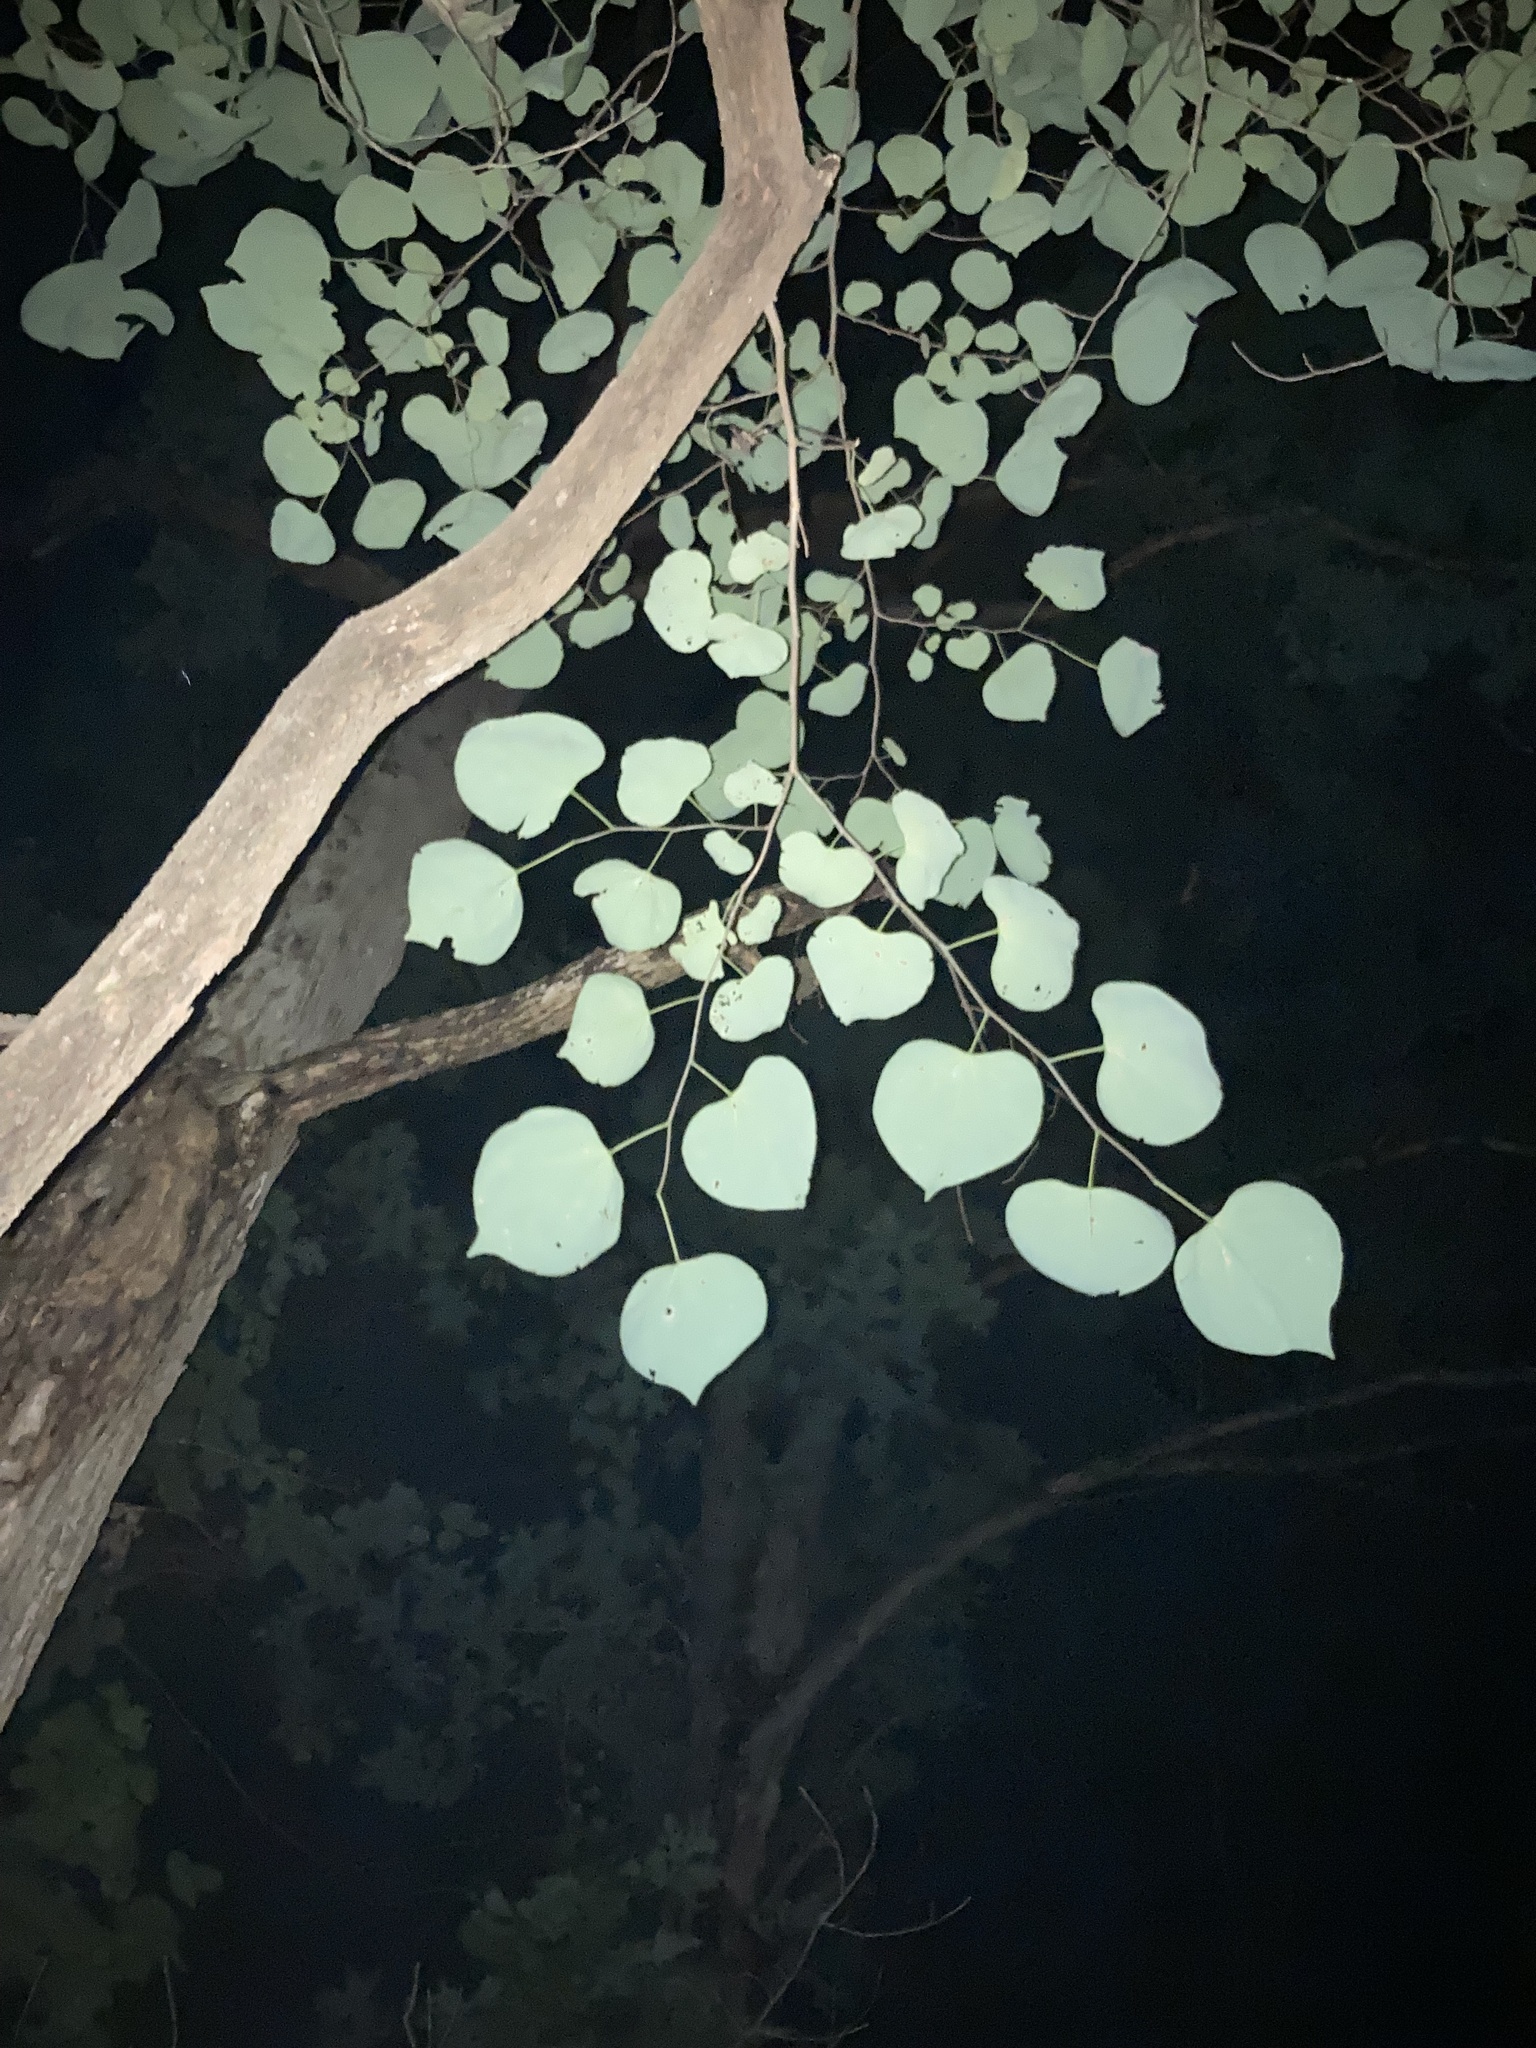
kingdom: Plantae
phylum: Tracheophyta
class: Magnoliopsida
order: Fabales
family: Fabaceae
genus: Cercis
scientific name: Cercis canadensis
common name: Eastern redbud
